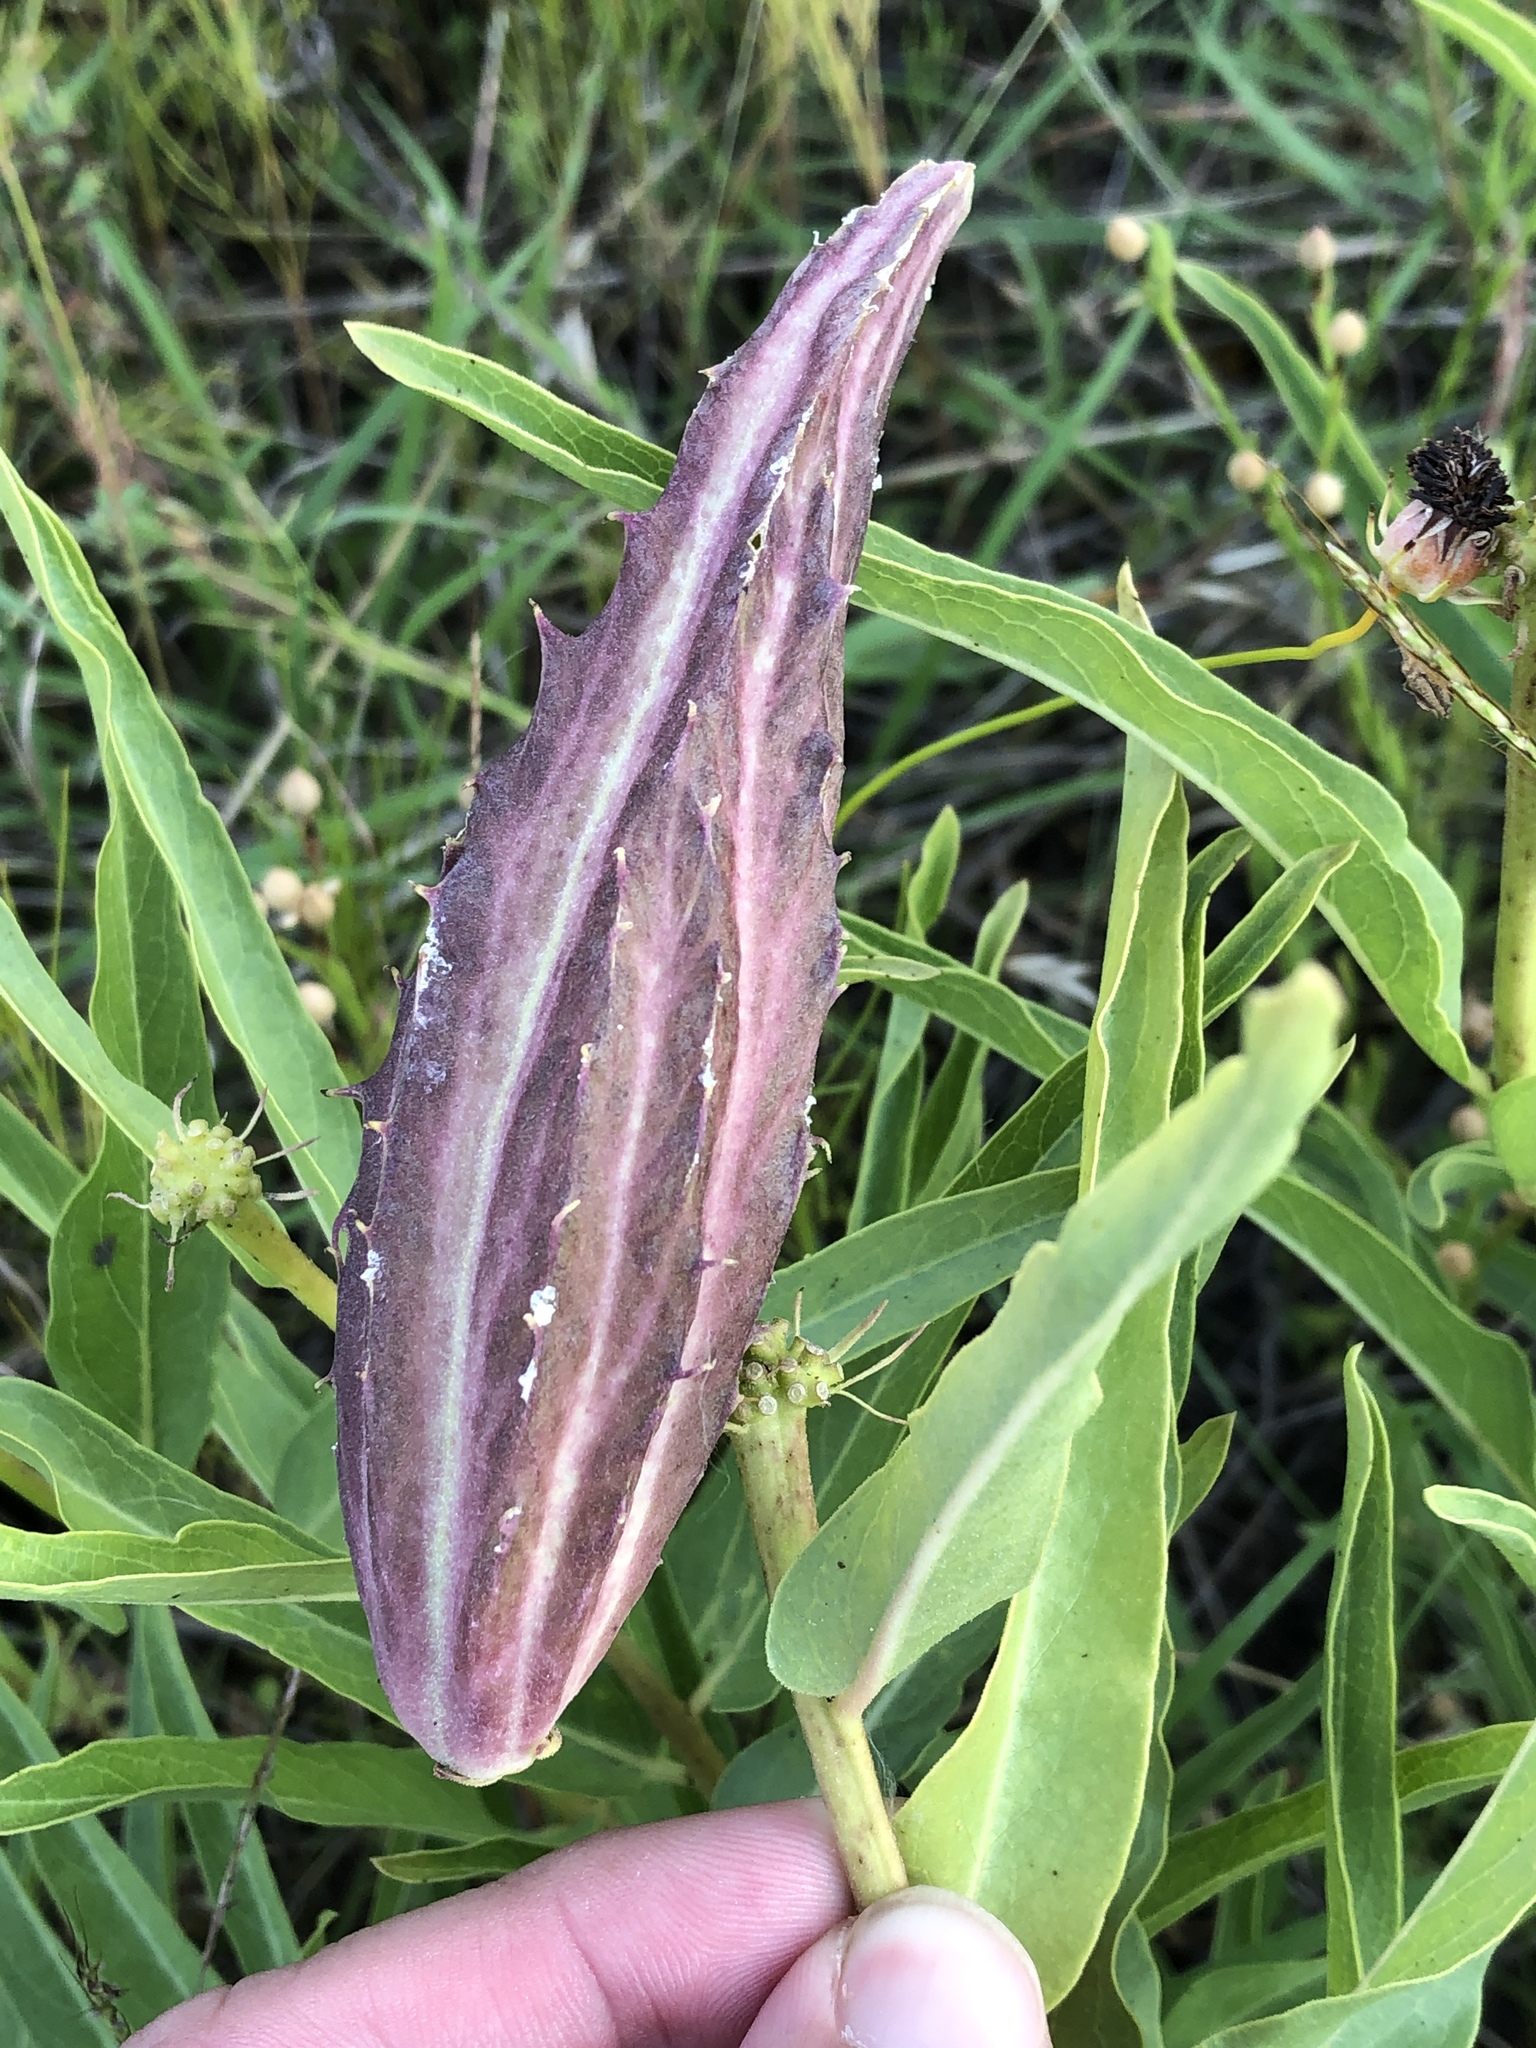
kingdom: Plantae
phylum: Tracheophyta
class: Magnoliopsida
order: Gentianales
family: Apocynaceae
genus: Asclepias
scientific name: Asclepias asperula
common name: Antelope horns
